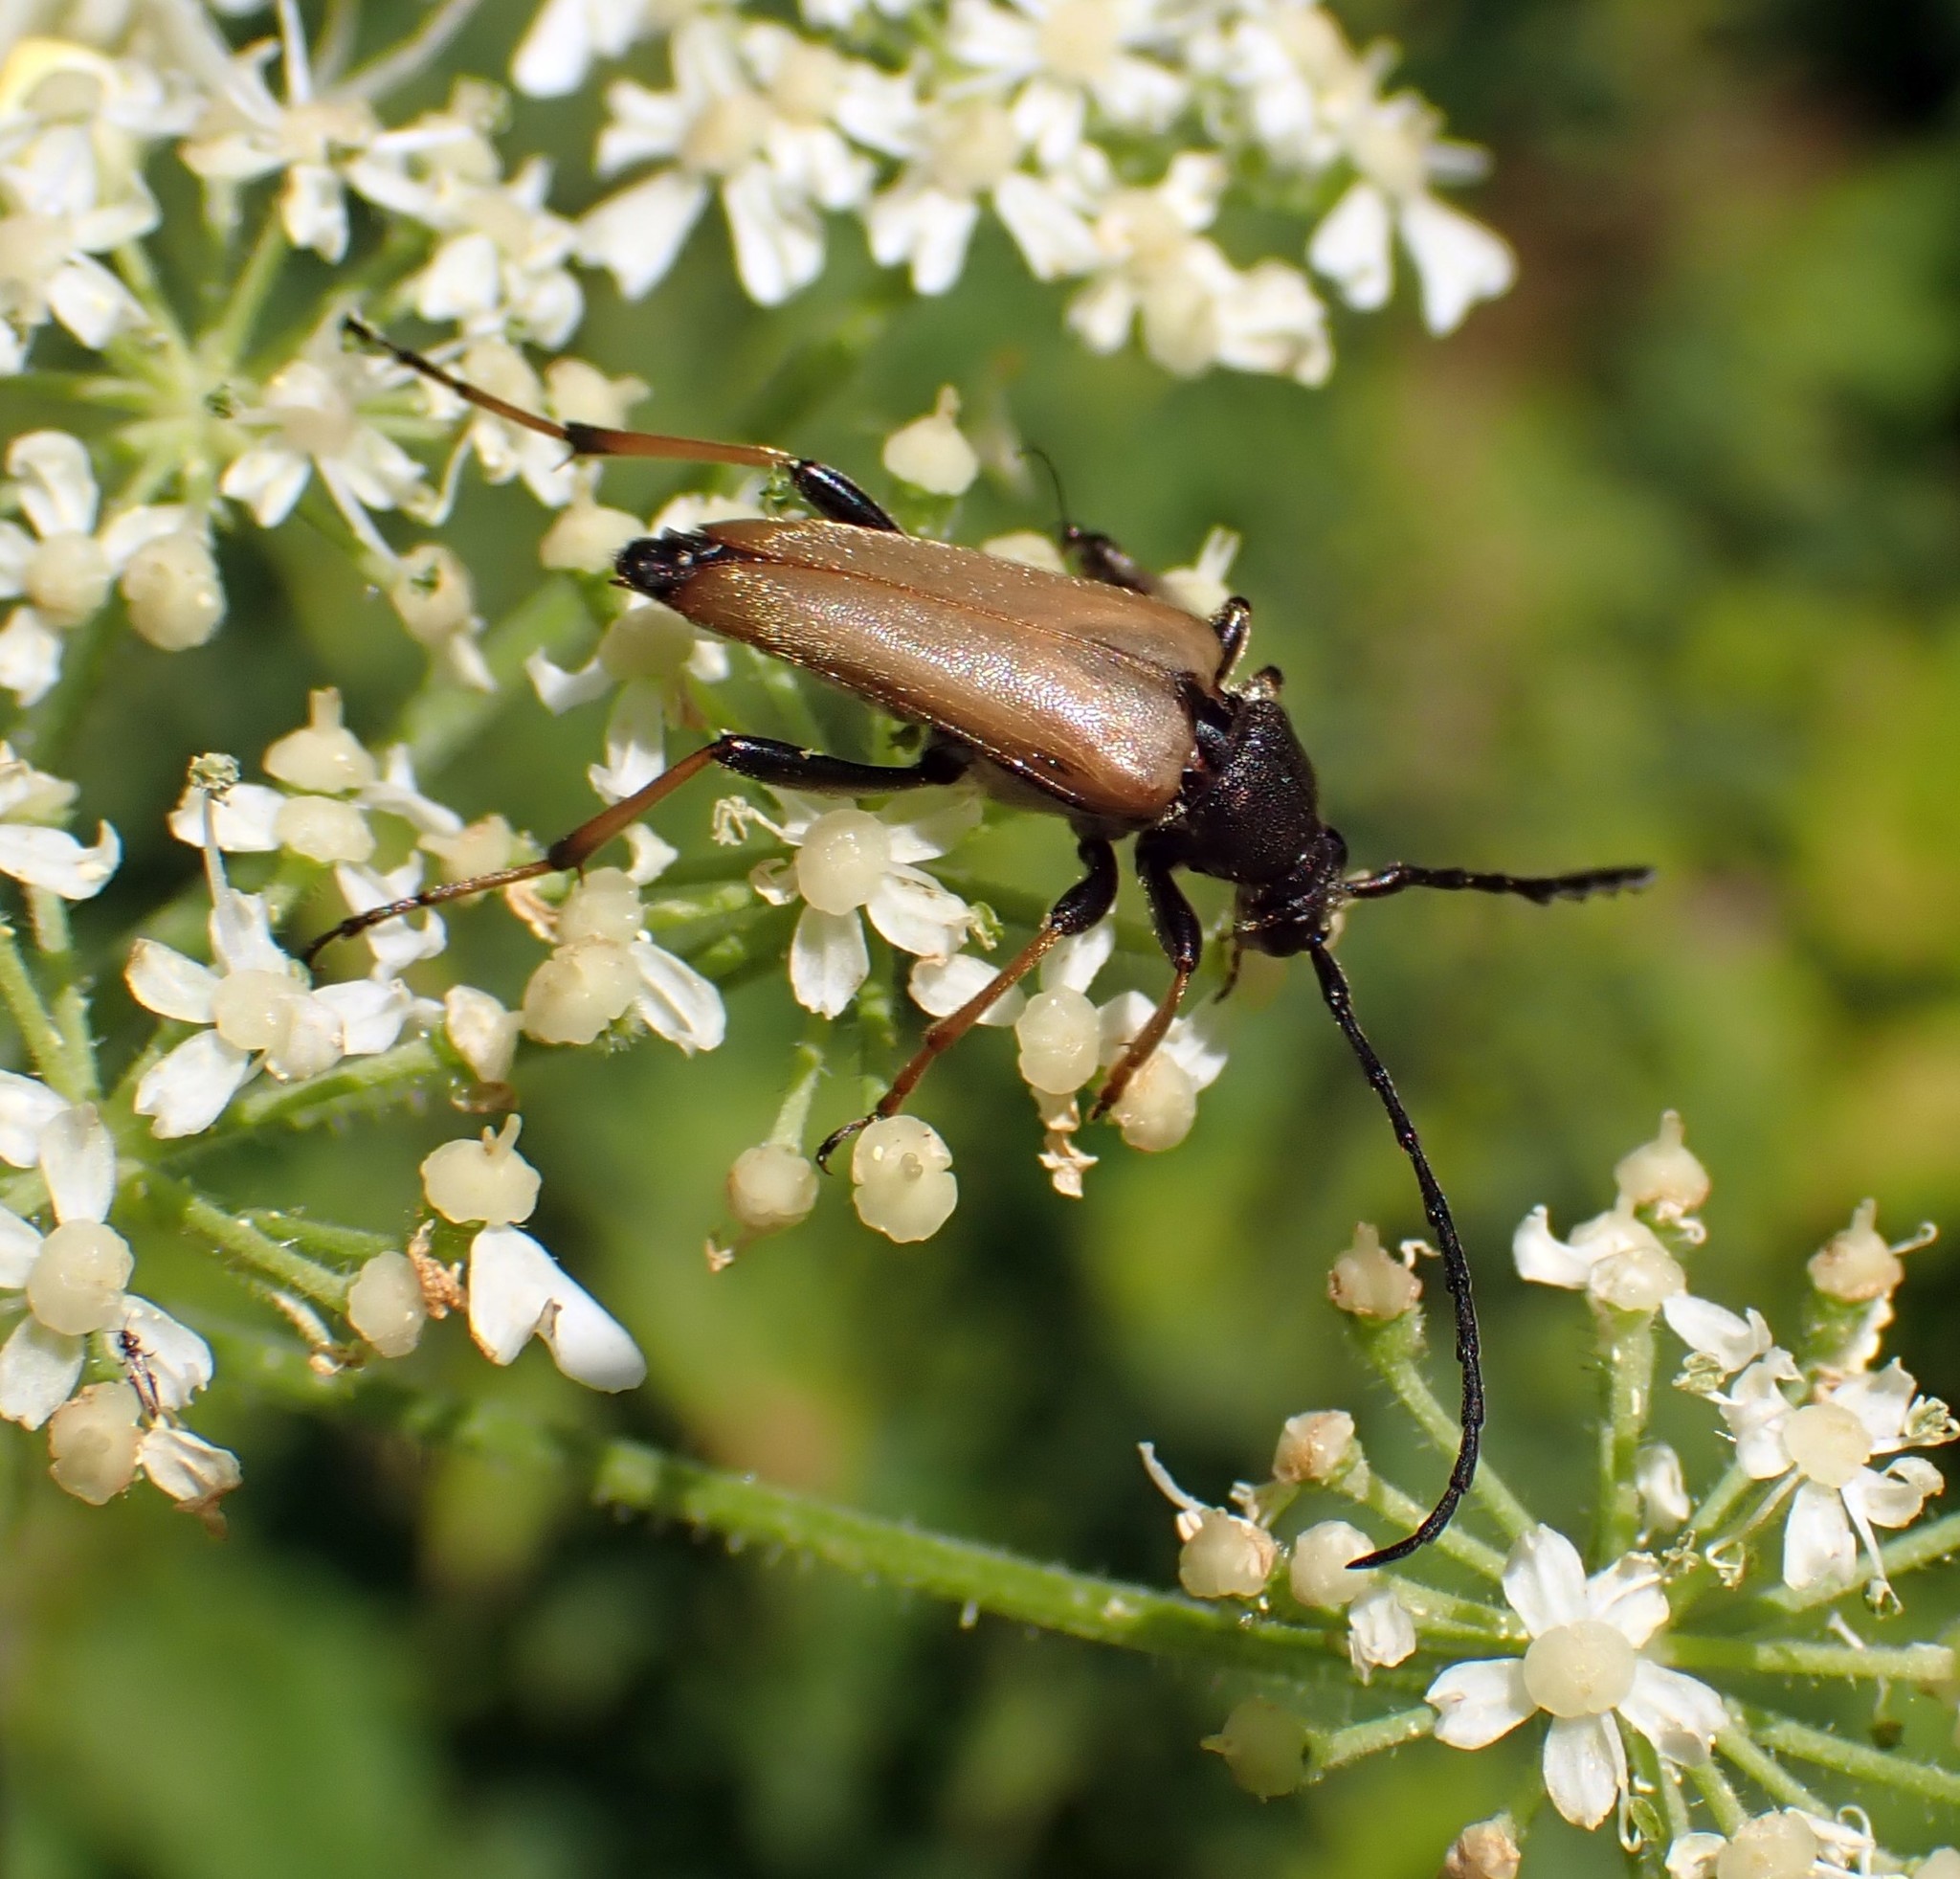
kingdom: Animalia
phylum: Arthropoda
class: Insecta
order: Coleoptera
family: Cerambycidae
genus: Stictoleptura
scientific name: Stictoleptura rubra
